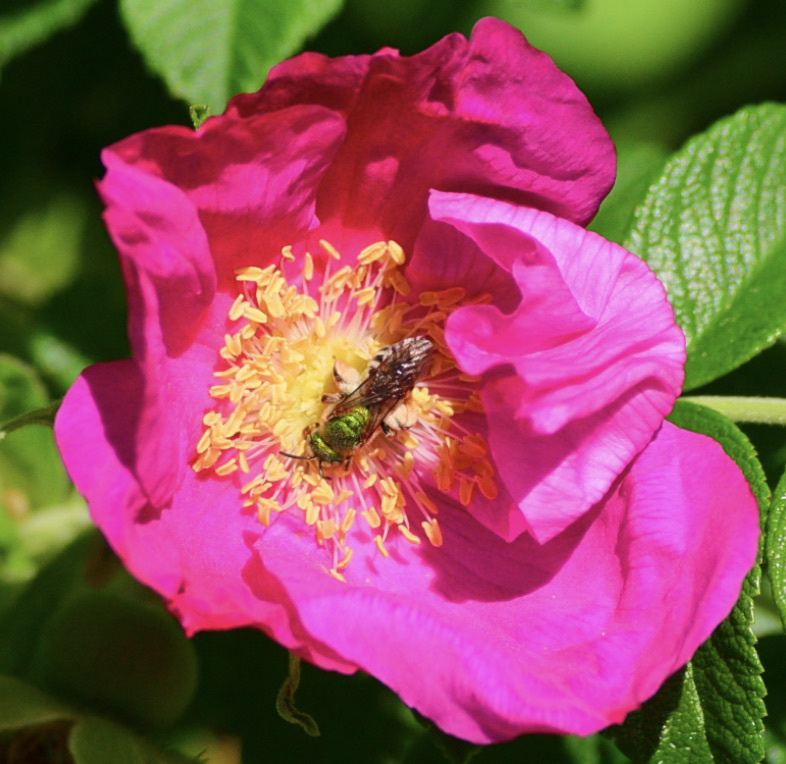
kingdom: Animalia
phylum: Arthropoda
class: Insecta
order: Hymenoptera
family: Halictidae
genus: Agapostemon
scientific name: Agapostemon virescens
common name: Bicolored striped sweat bee
